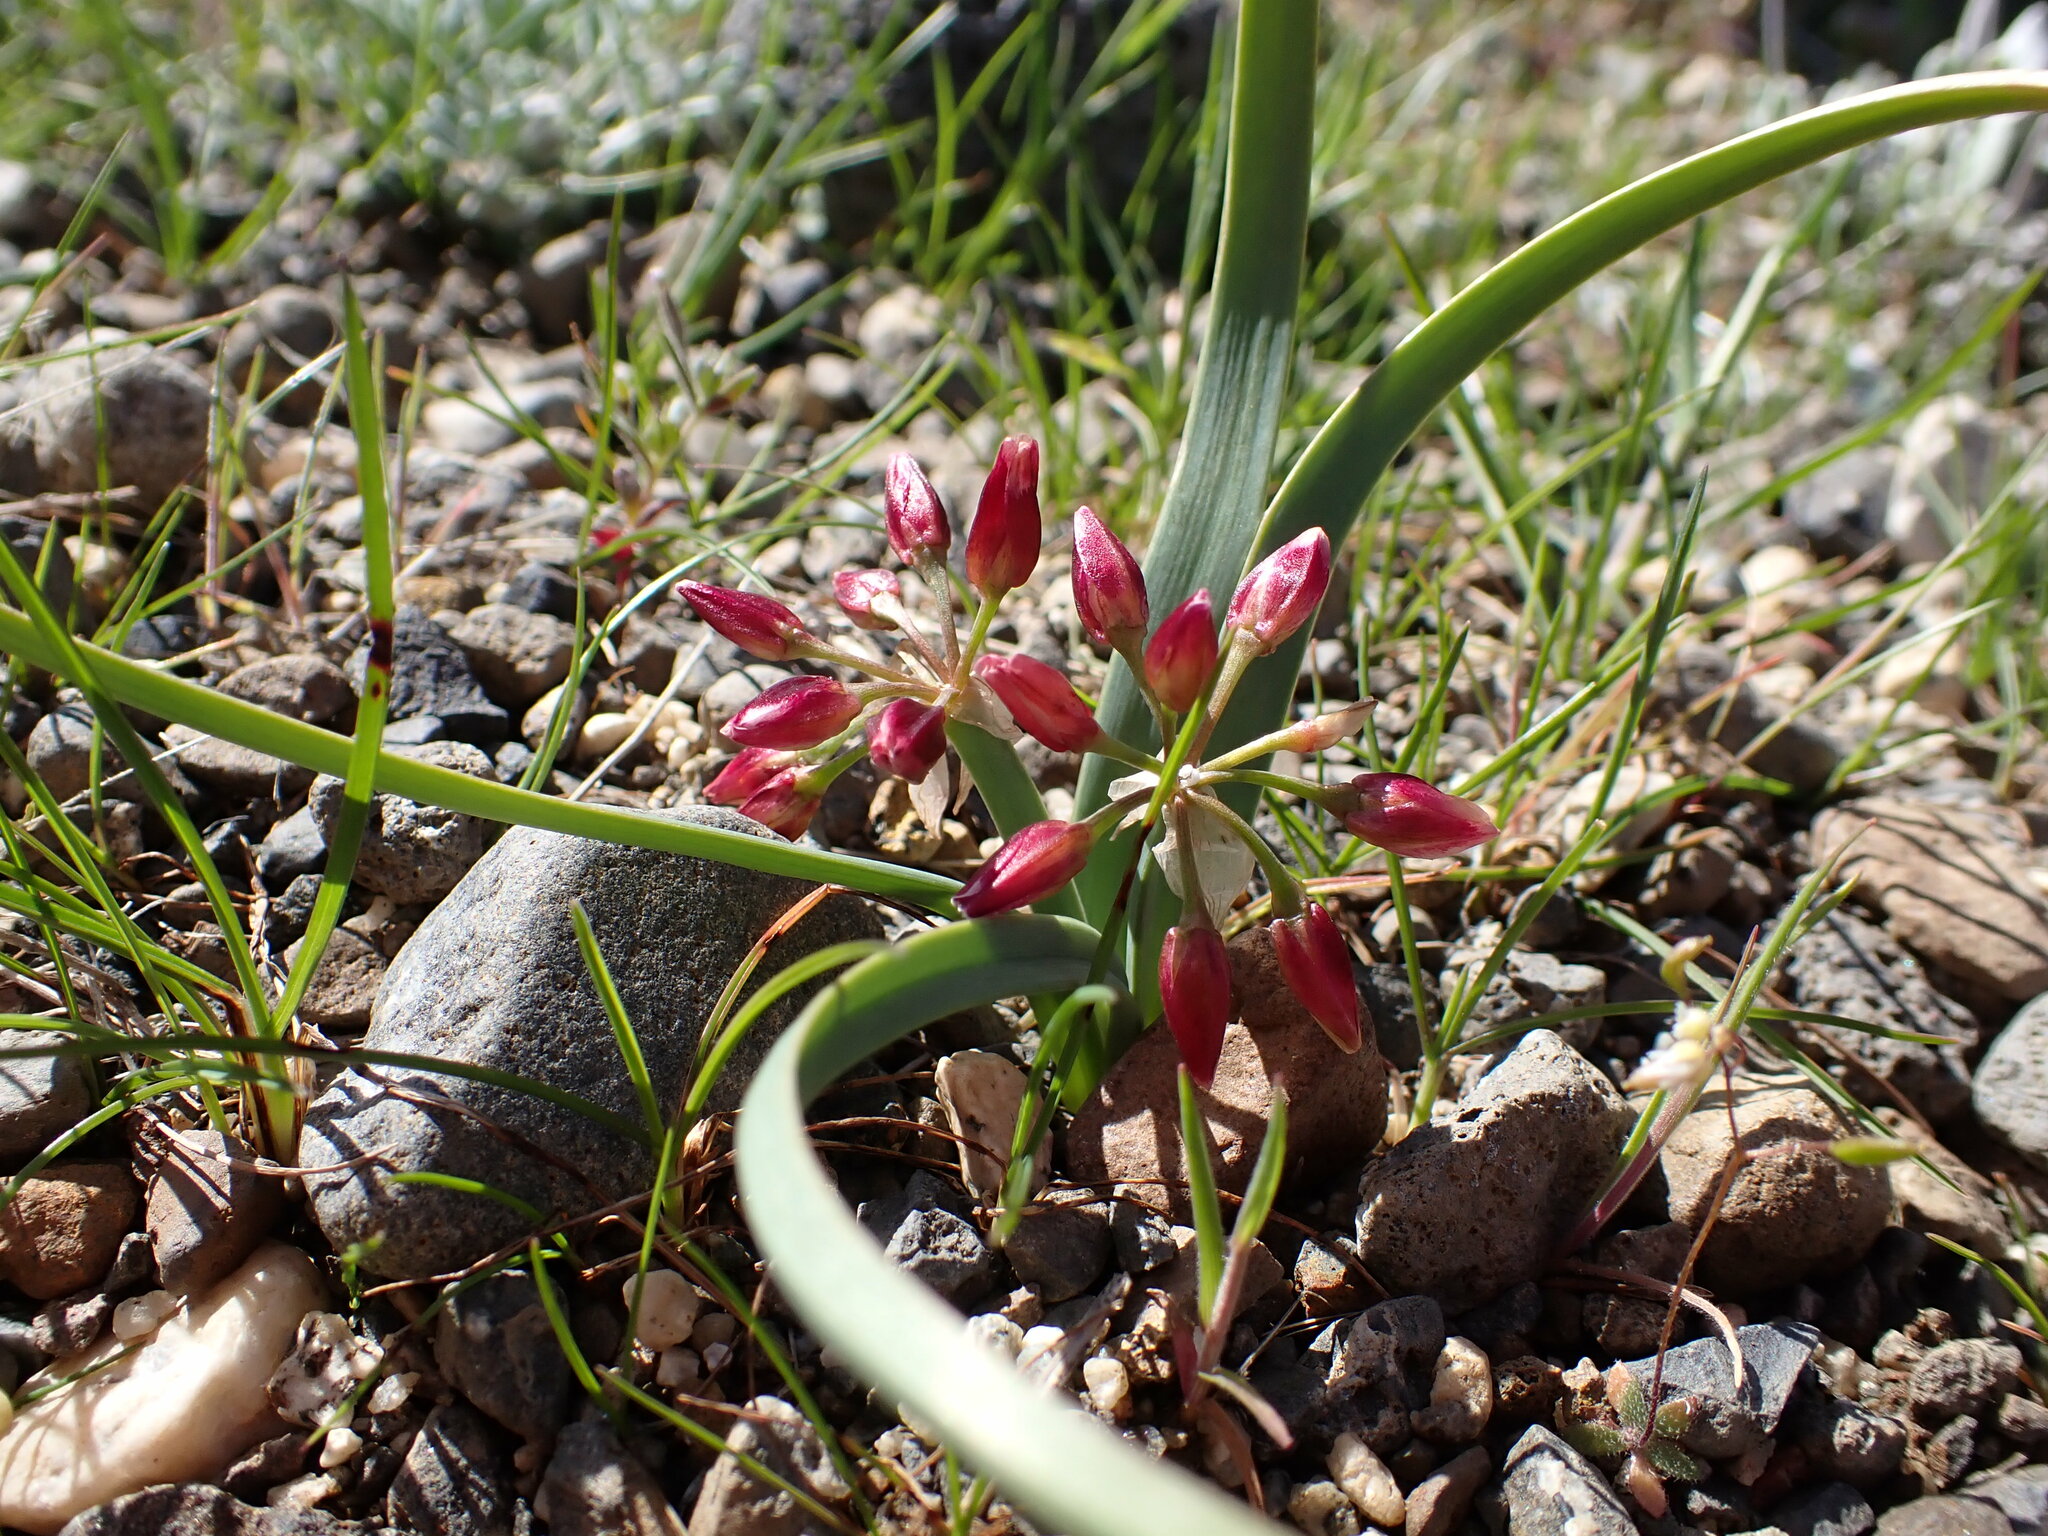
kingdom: Plantae
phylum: Tracheophyta
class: Liliopsida
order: Asparagales
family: Amaryllidaceae
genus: Allium
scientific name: Allium scilloides
